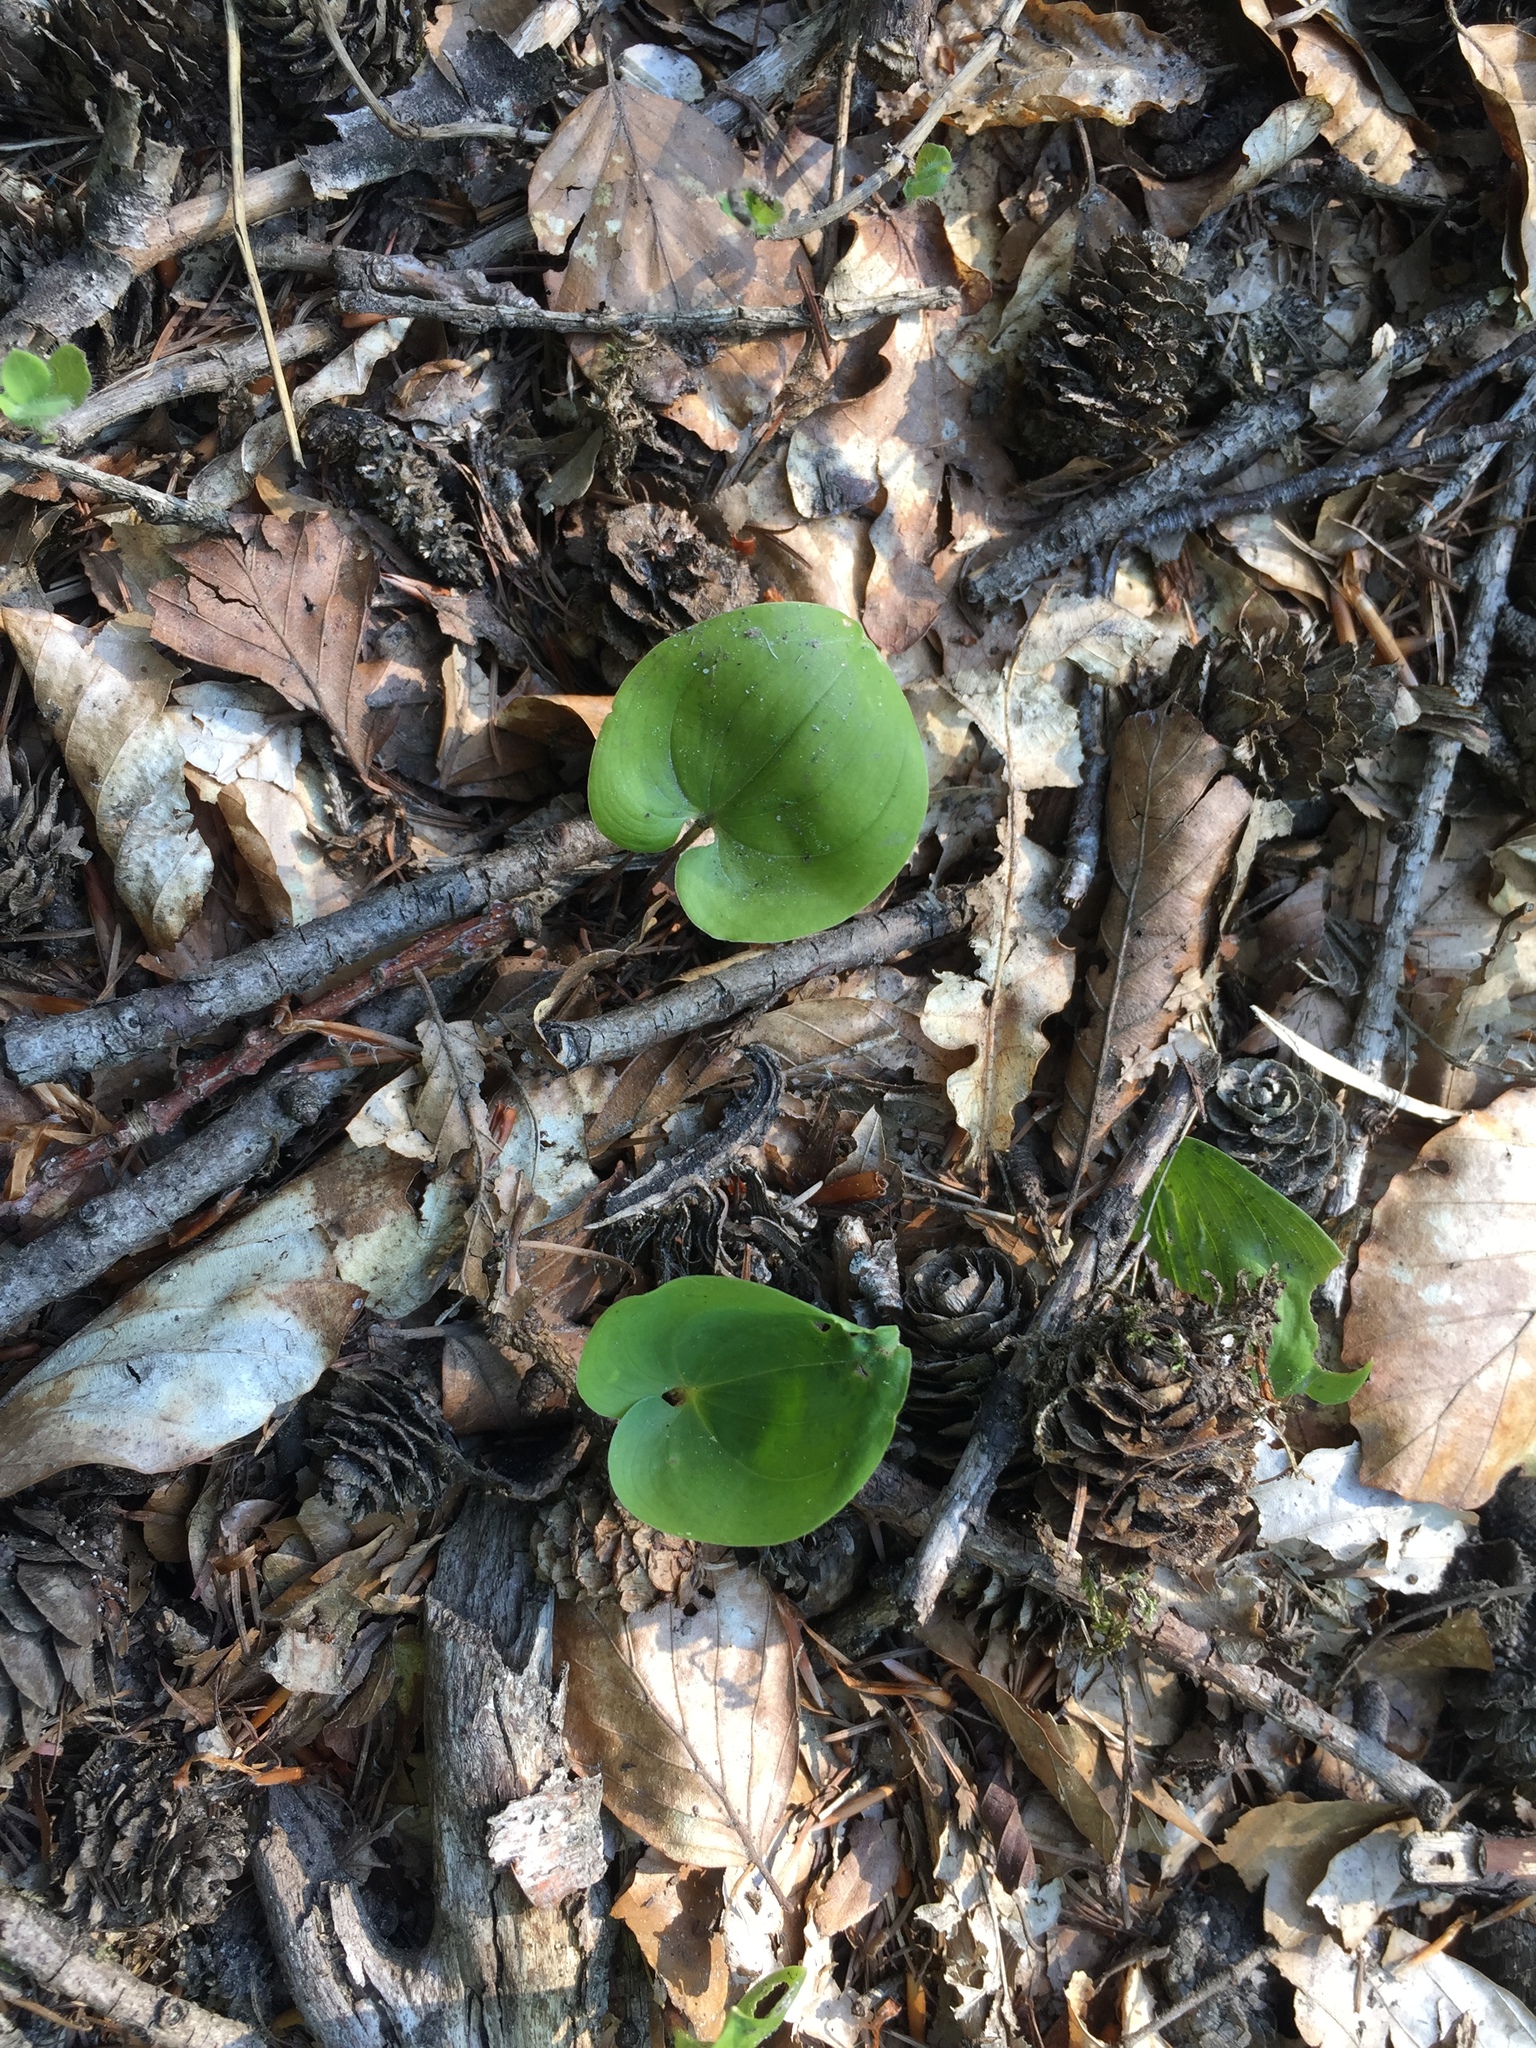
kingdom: Plantae
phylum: Tracheophyta
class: Liliopsida
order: Asparagales
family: Asparagaceae
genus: Maianthemum
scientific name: Maianthemum bifolium
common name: May lily
